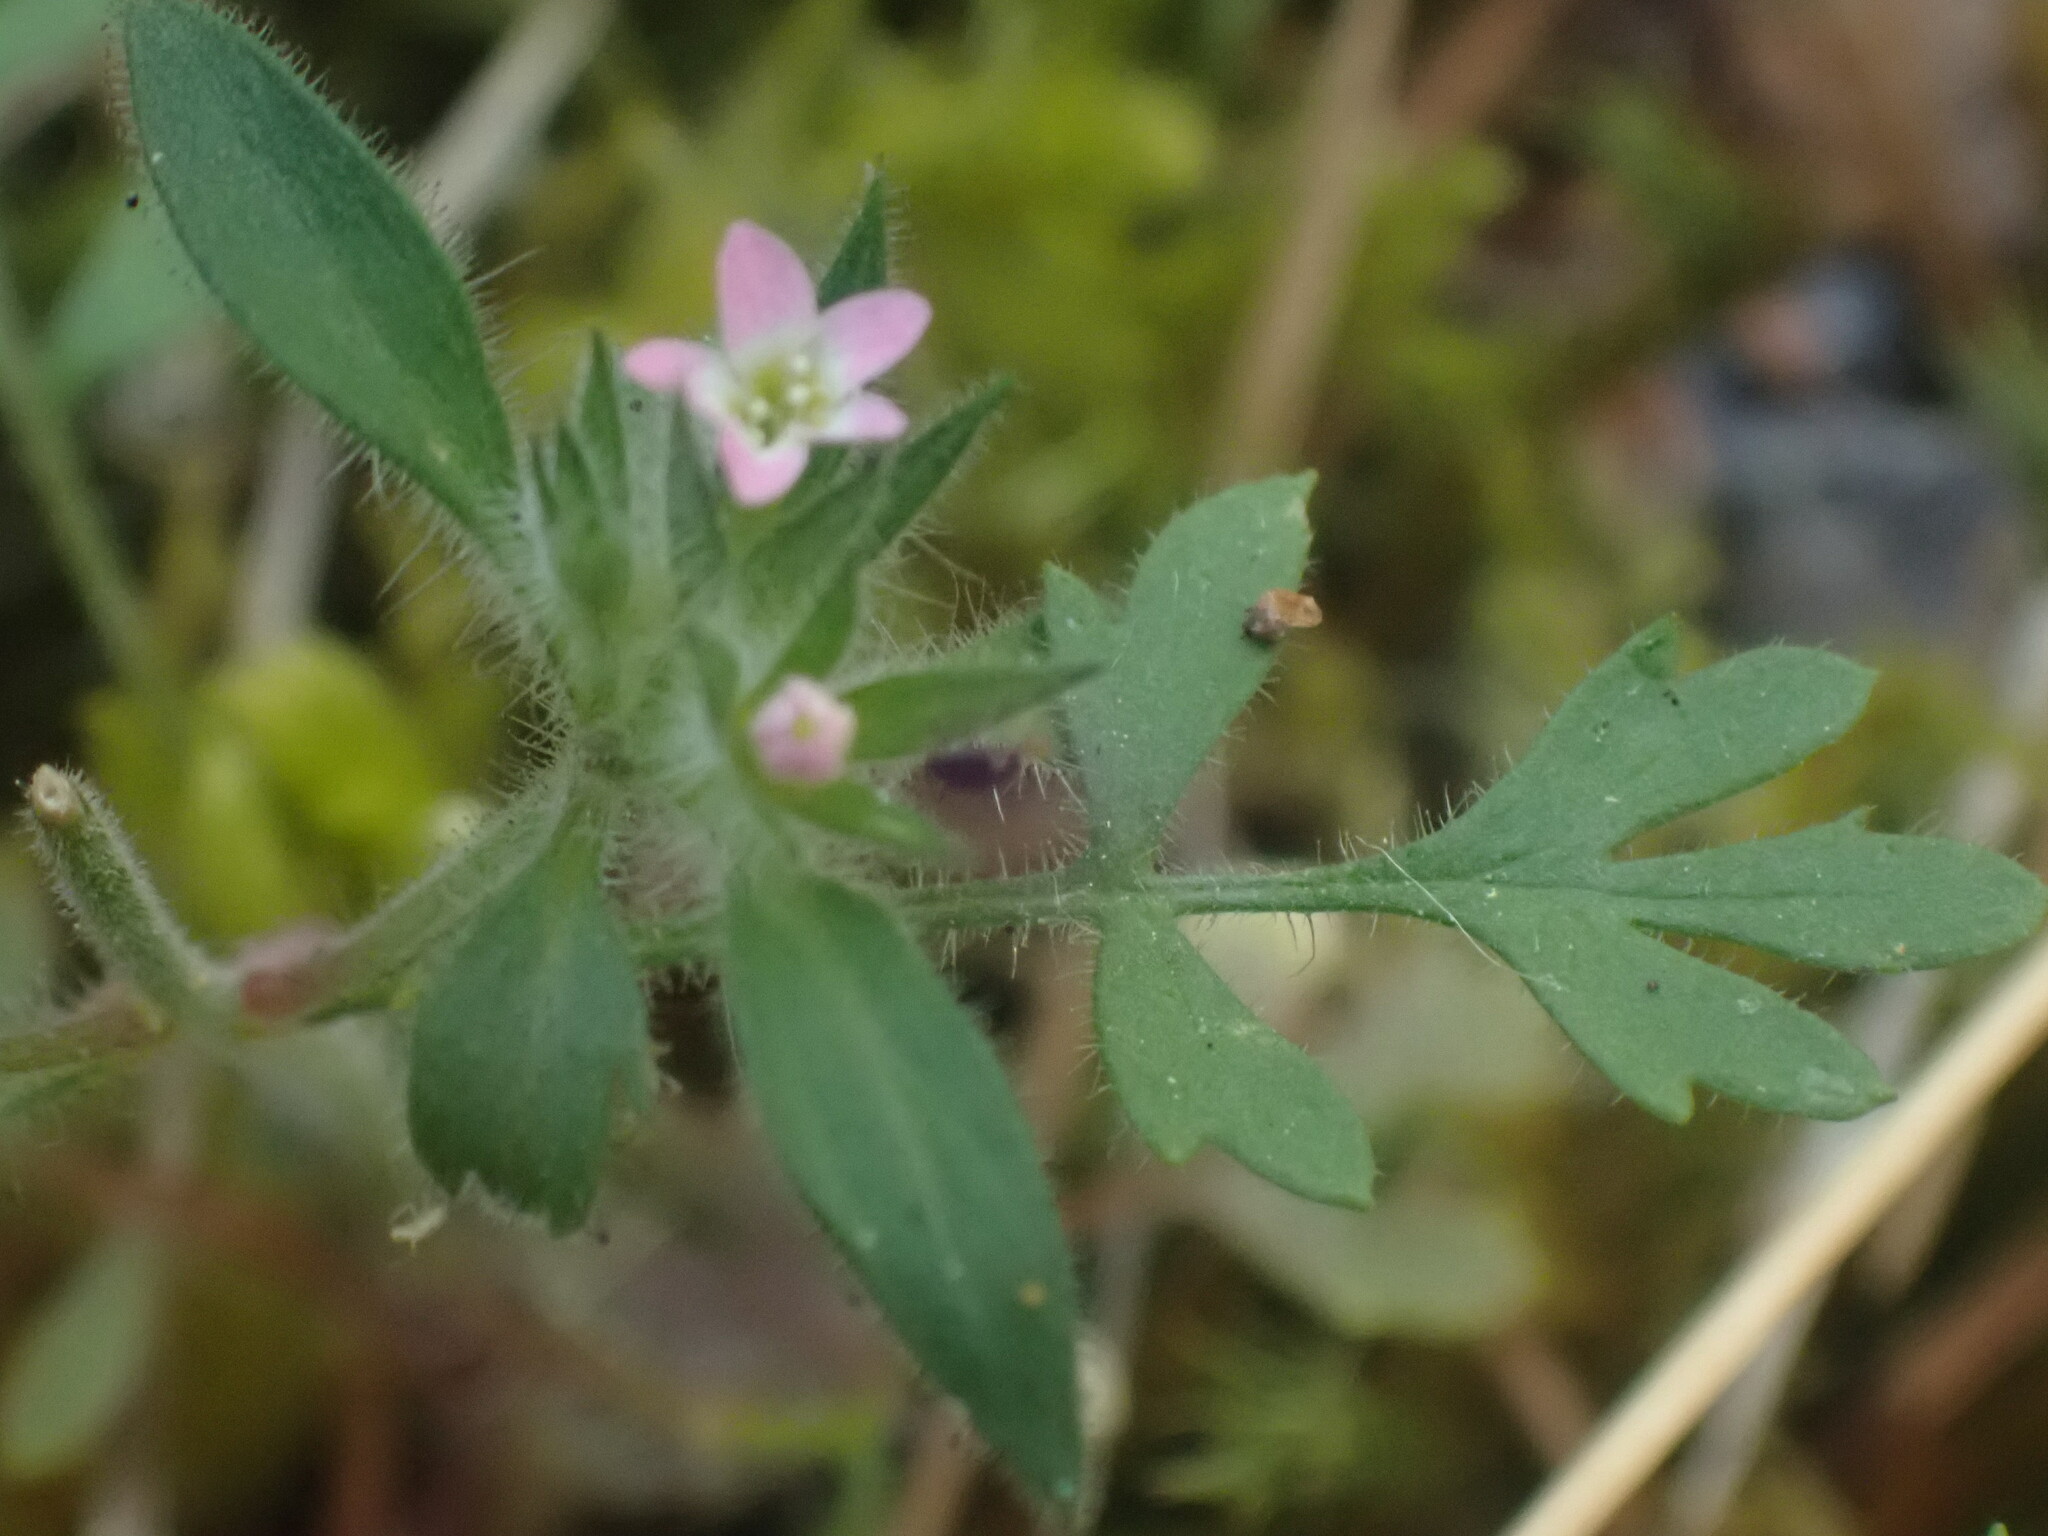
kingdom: Plantae
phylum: Tracheophyta
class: Magnoliopsida
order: Ericales
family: Polemoniaceae
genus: Collomia
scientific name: Collomia heterophylla
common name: Variable-leaved collomia
